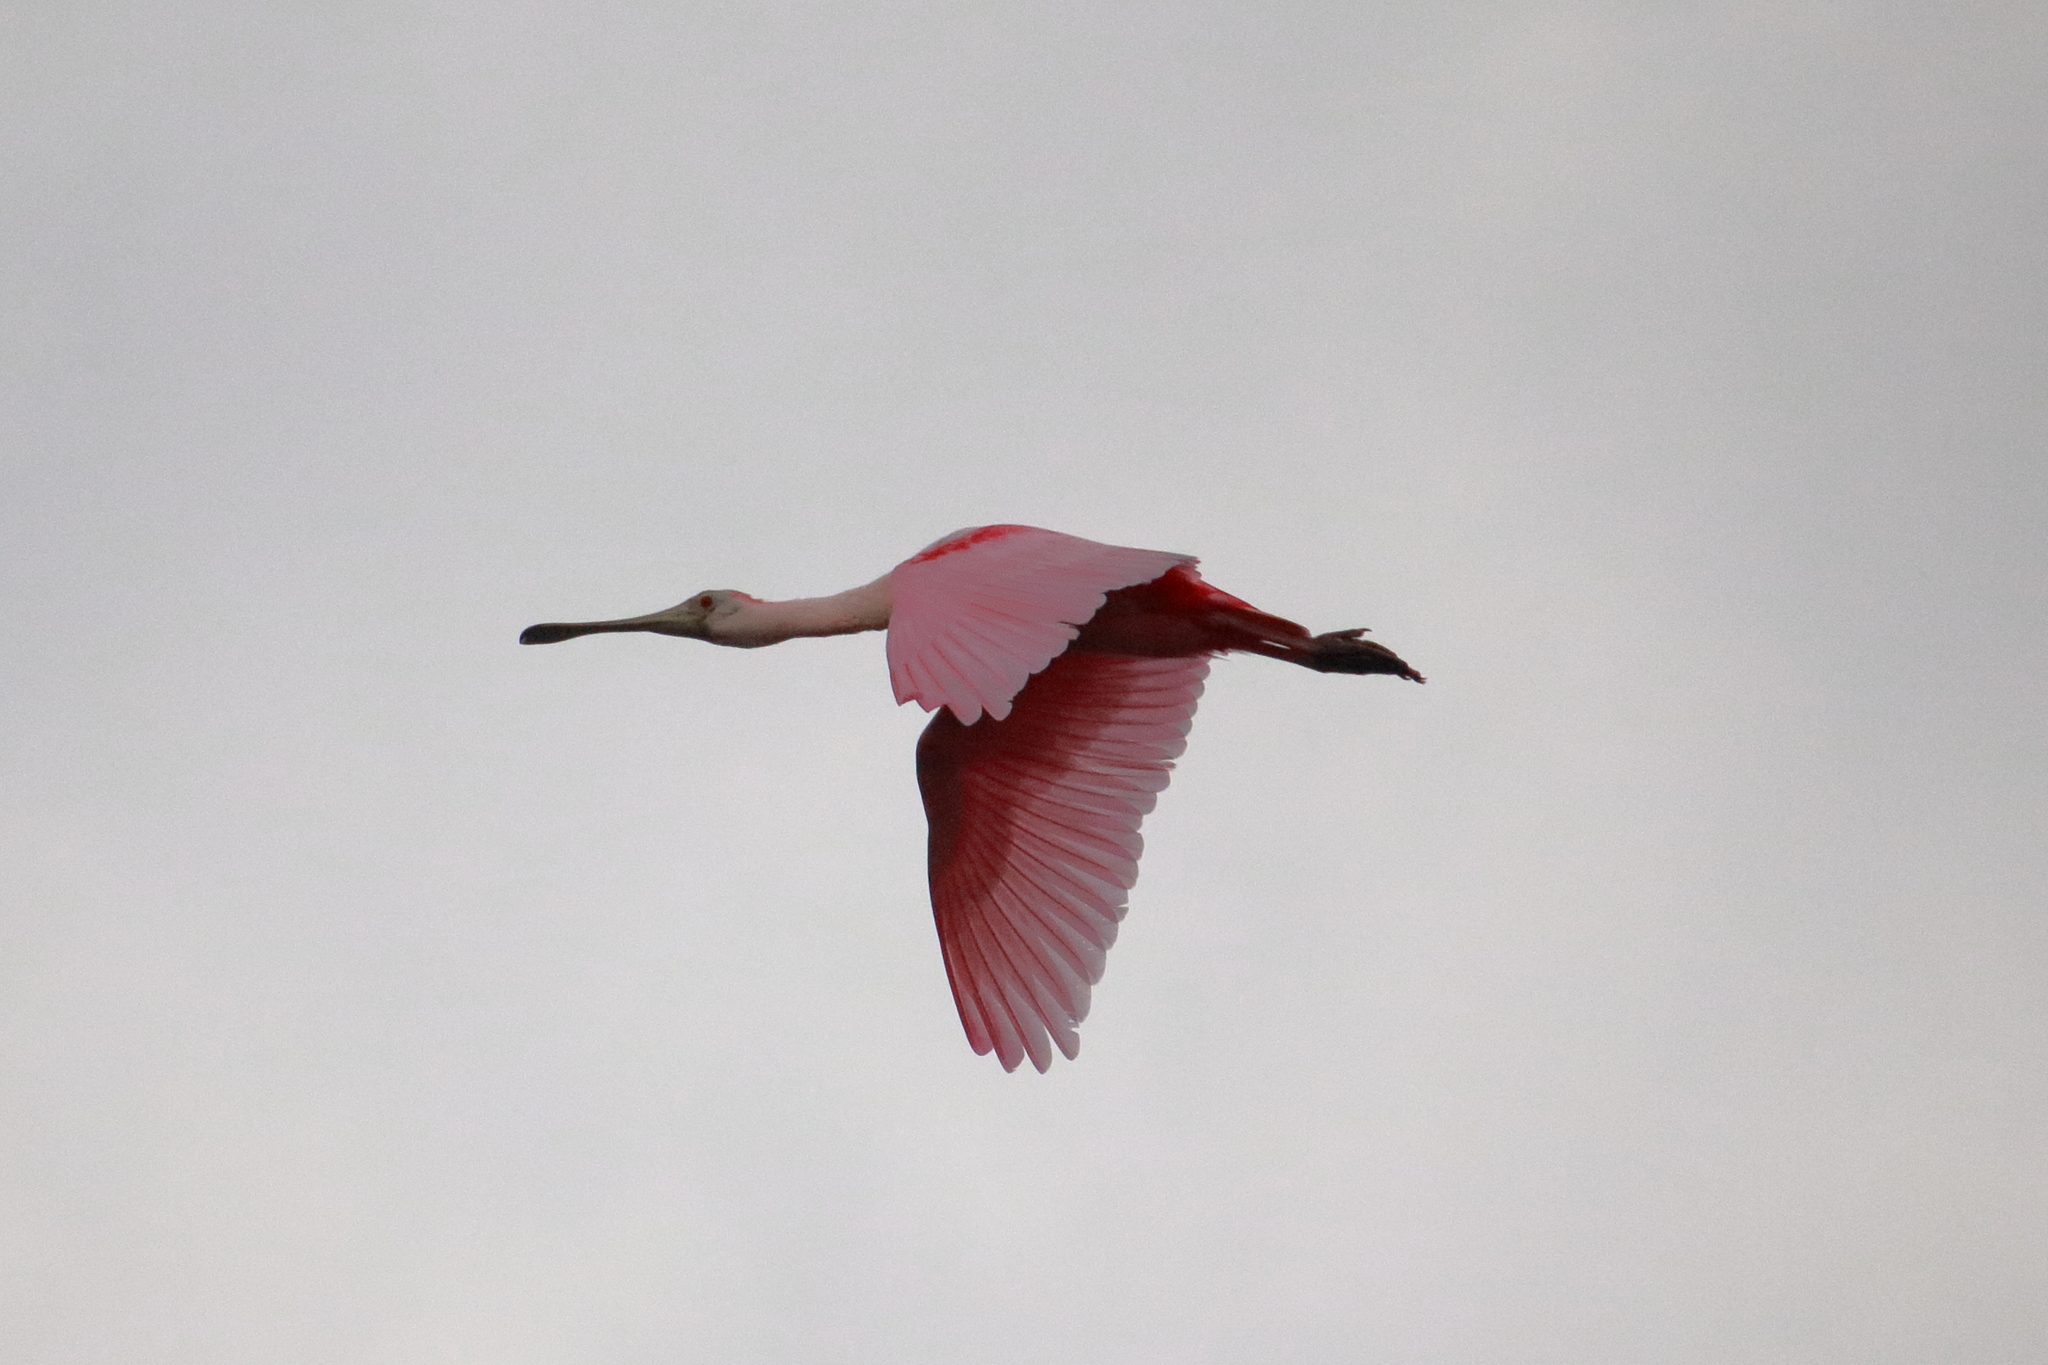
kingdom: Animalia
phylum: Chordata
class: Aves
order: Pelecaniformes
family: Threskiornithidae
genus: Platalea
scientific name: Platalea ajaja
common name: Roseate spoonbill
